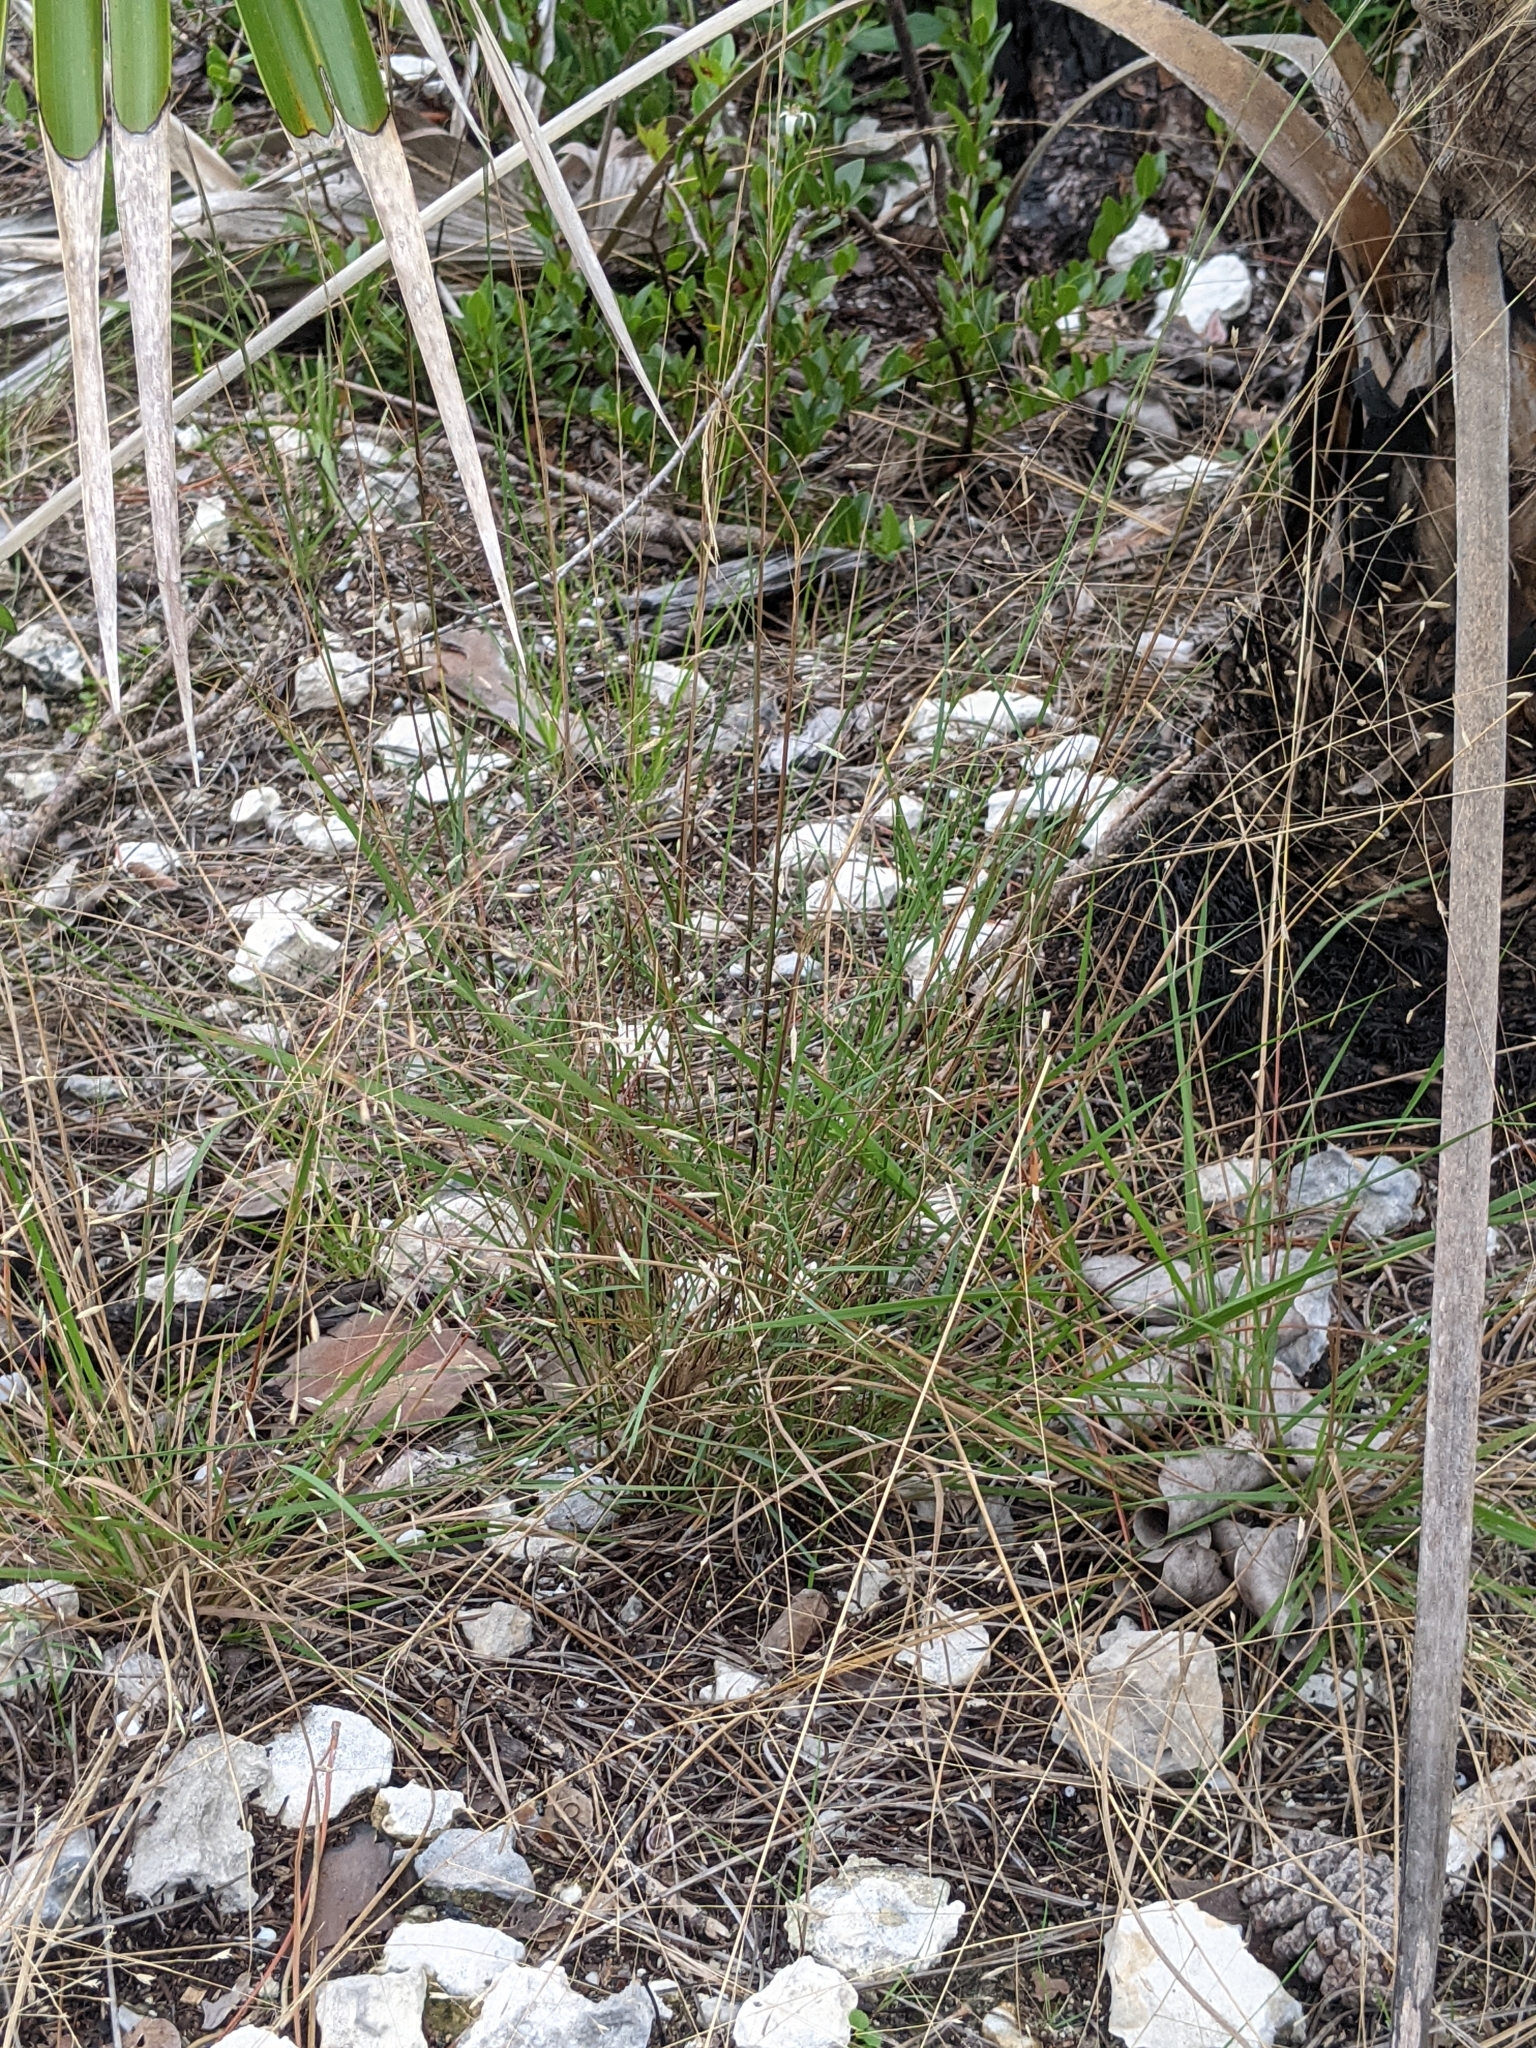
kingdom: Plantae
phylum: Tracheophyta
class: Liliopsida
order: Poales
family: Poaceae
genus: Eragrostis
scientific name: Eragrostis elliottii
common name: Elliott's love grass
